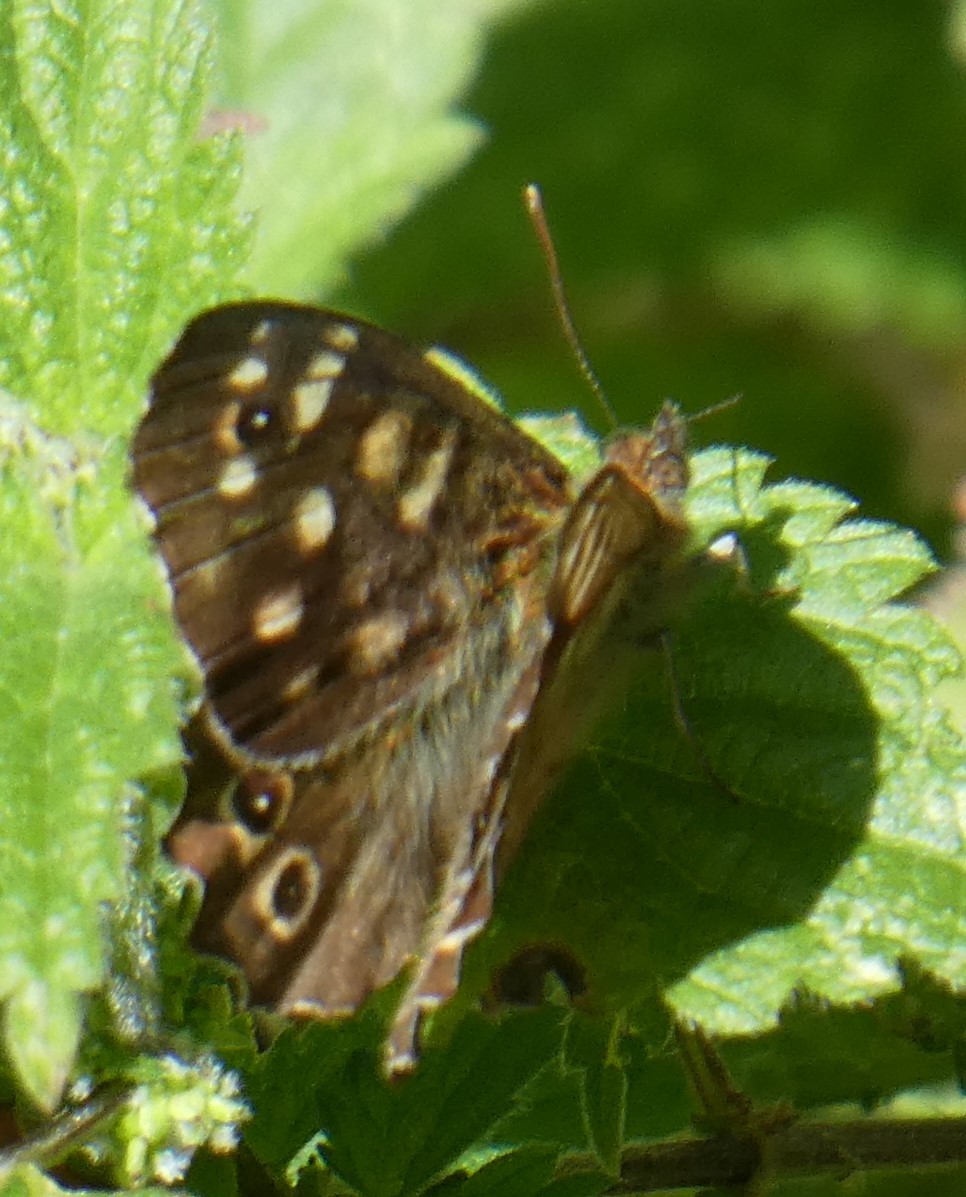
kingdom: Animalia
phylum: Arthropoda
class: Insecta
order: Lepidoptera
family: Nymphalidae
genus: Pararge
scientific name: Pararge aegeria
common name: Speckled wood
